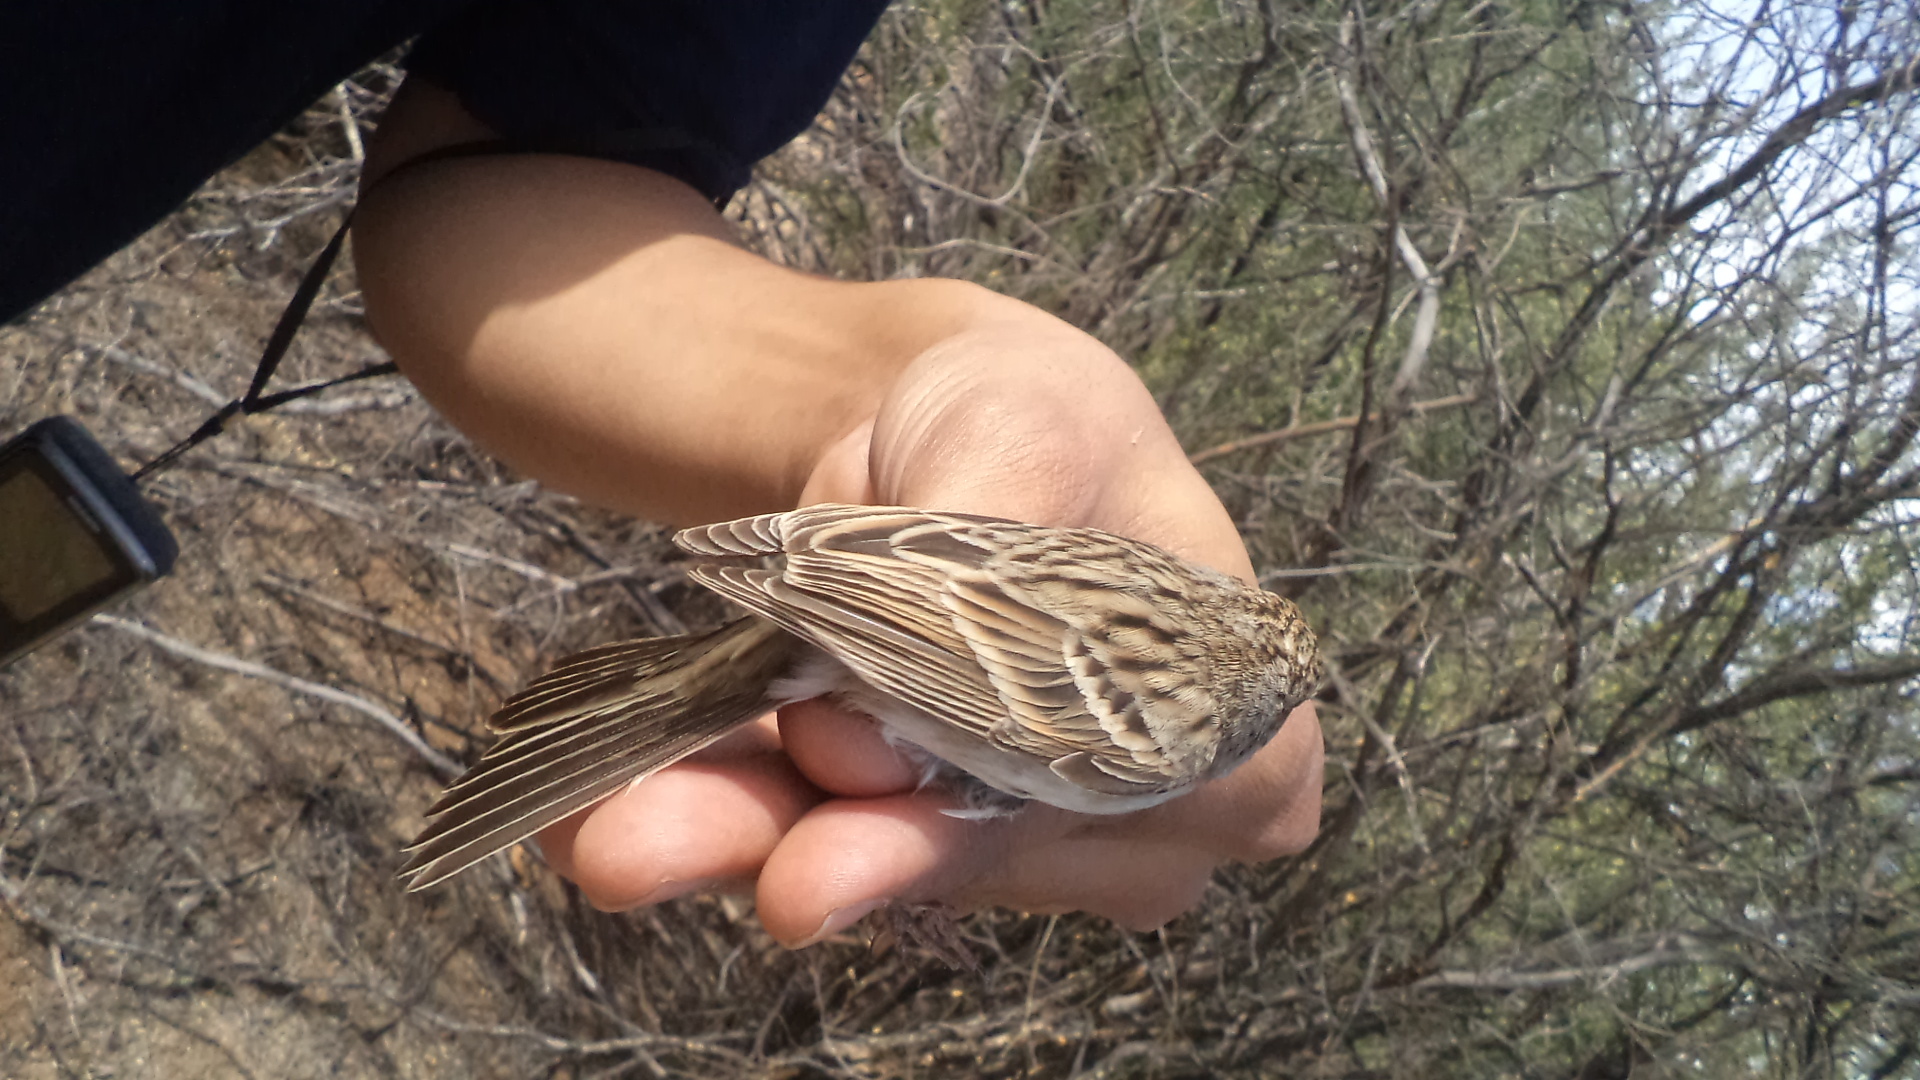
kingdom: Animalia
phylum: Chordata
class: Aves
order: Passeriformes
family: Passerellidae
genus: Peucaea
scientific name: Peucaea carpalis
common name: Rufous-winged sparrow
